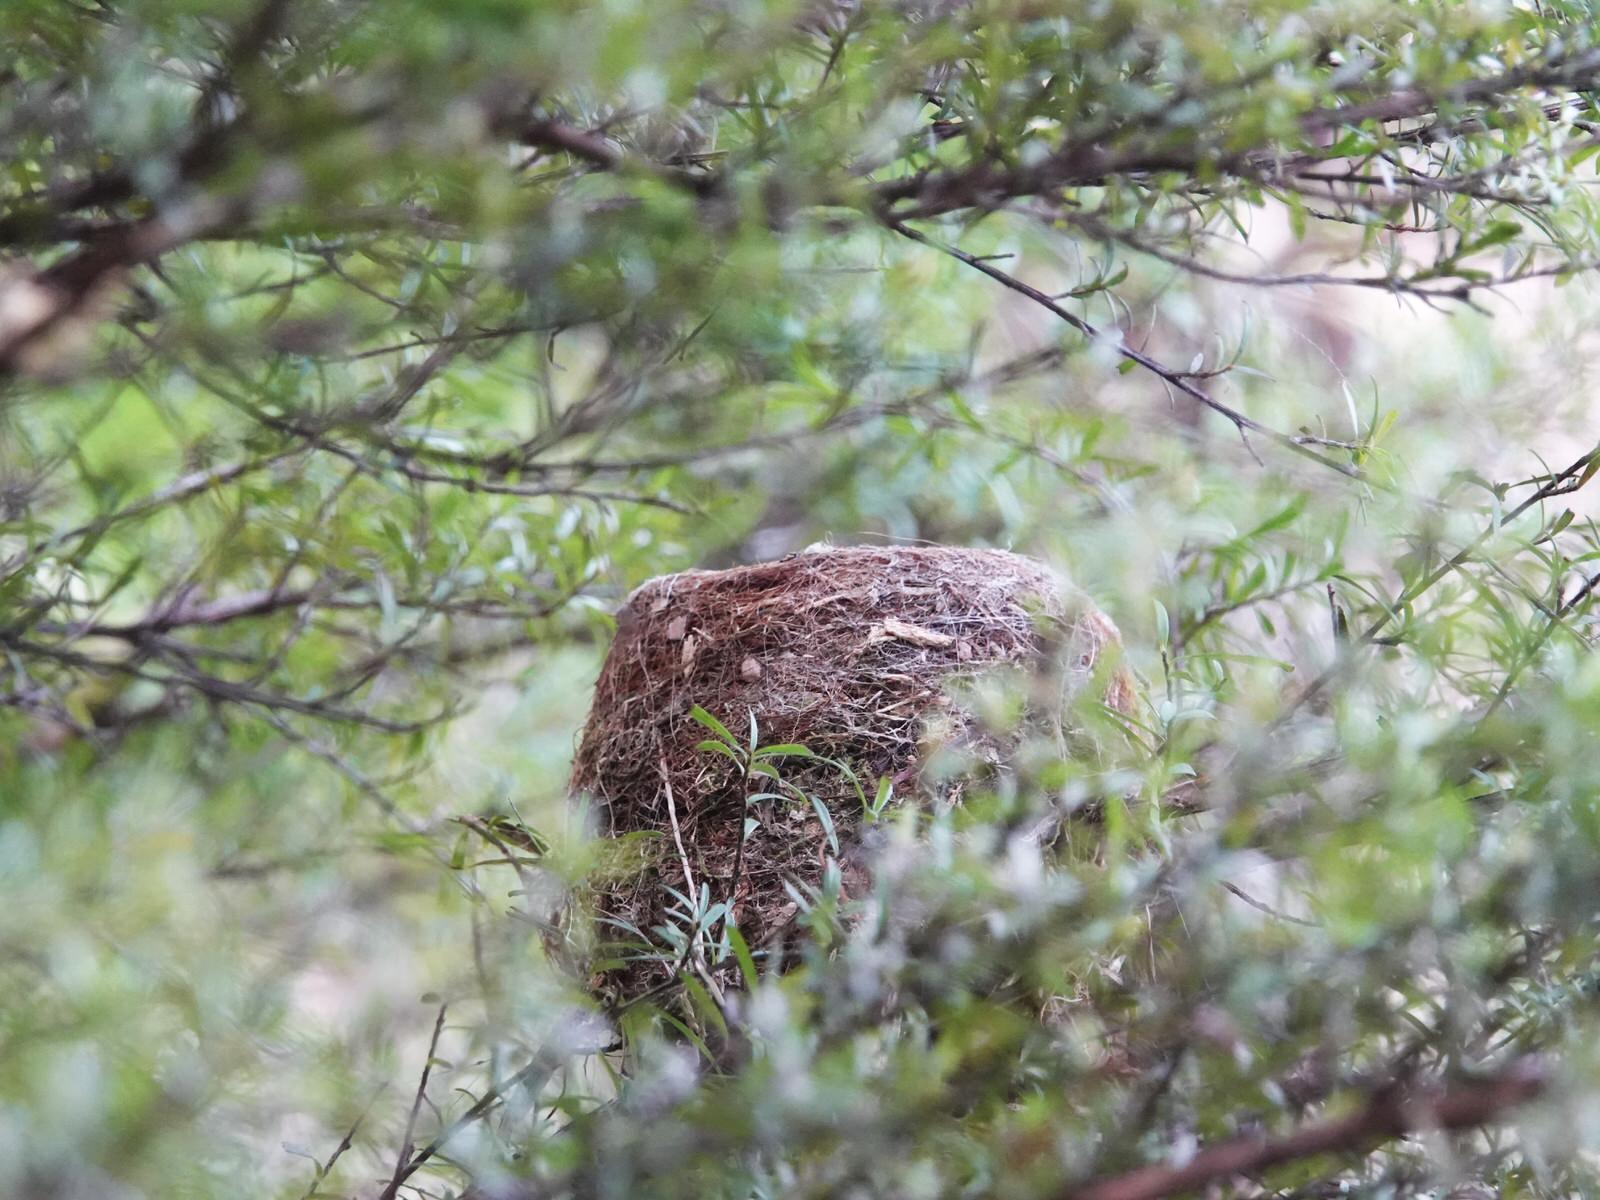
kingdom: Animalia
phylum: Chordata
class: Aves
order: Passeriformes
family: Rhipiduridae
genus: Rhipidura
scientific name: Rhipidura fuliginosa
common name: New zealand fantail
